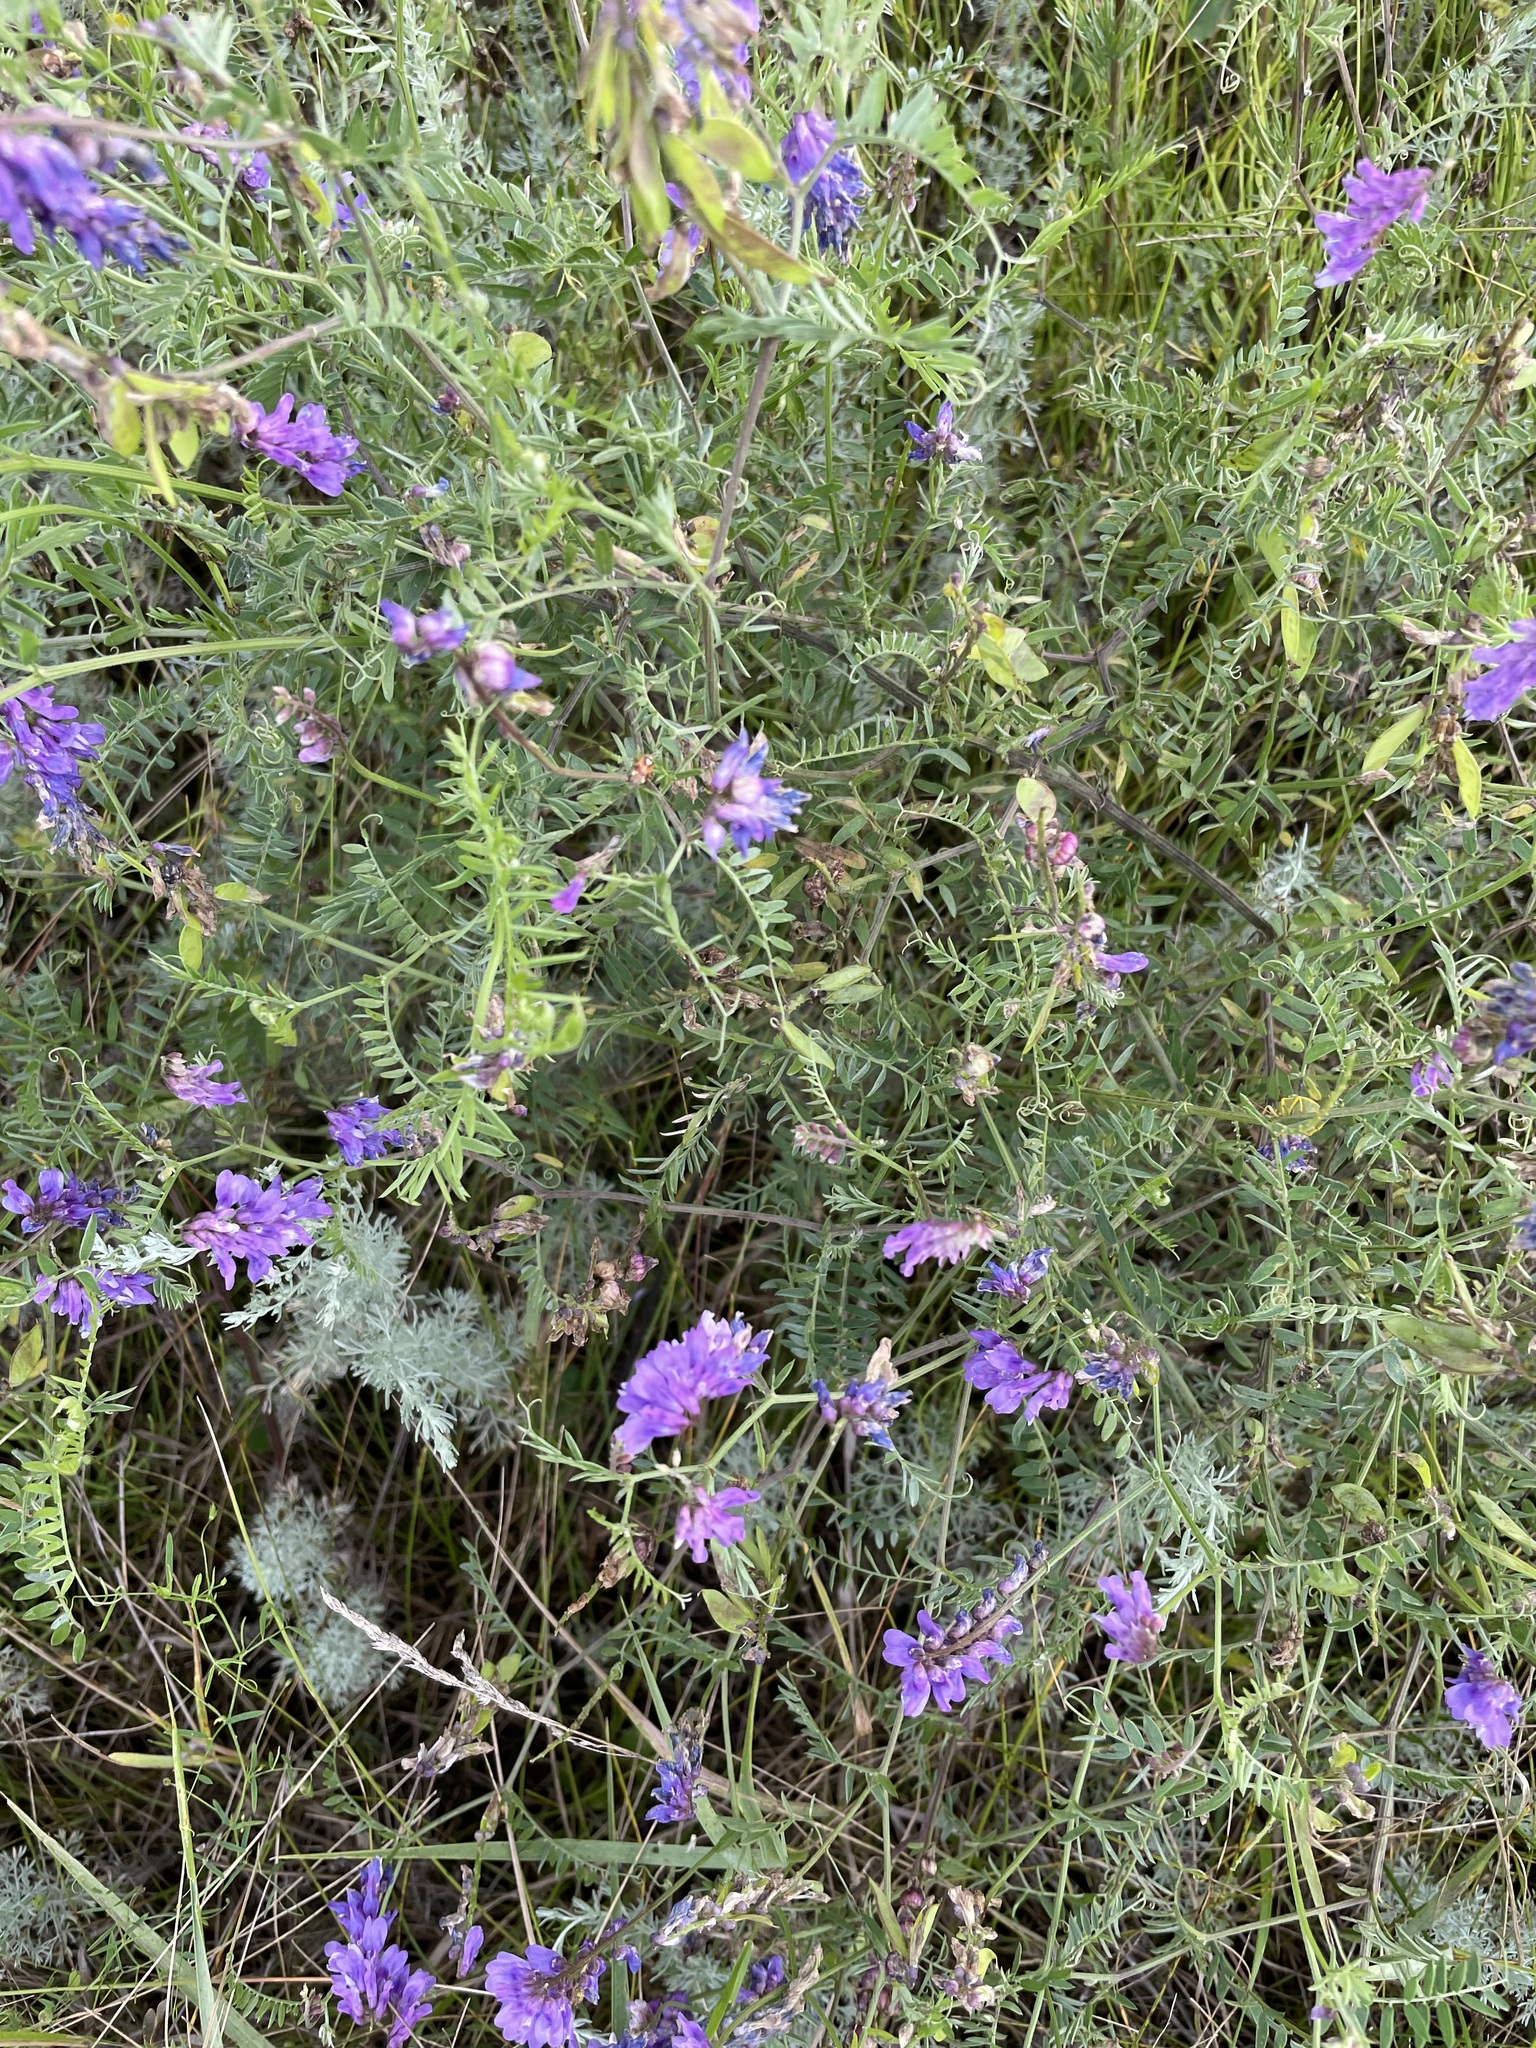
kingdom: Plantae
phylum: Tracheophyta
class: Magnoliopsida
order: Fabales
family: Fabaceae
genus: Vicia
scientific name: Vicia cracca
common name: Bird vetch
